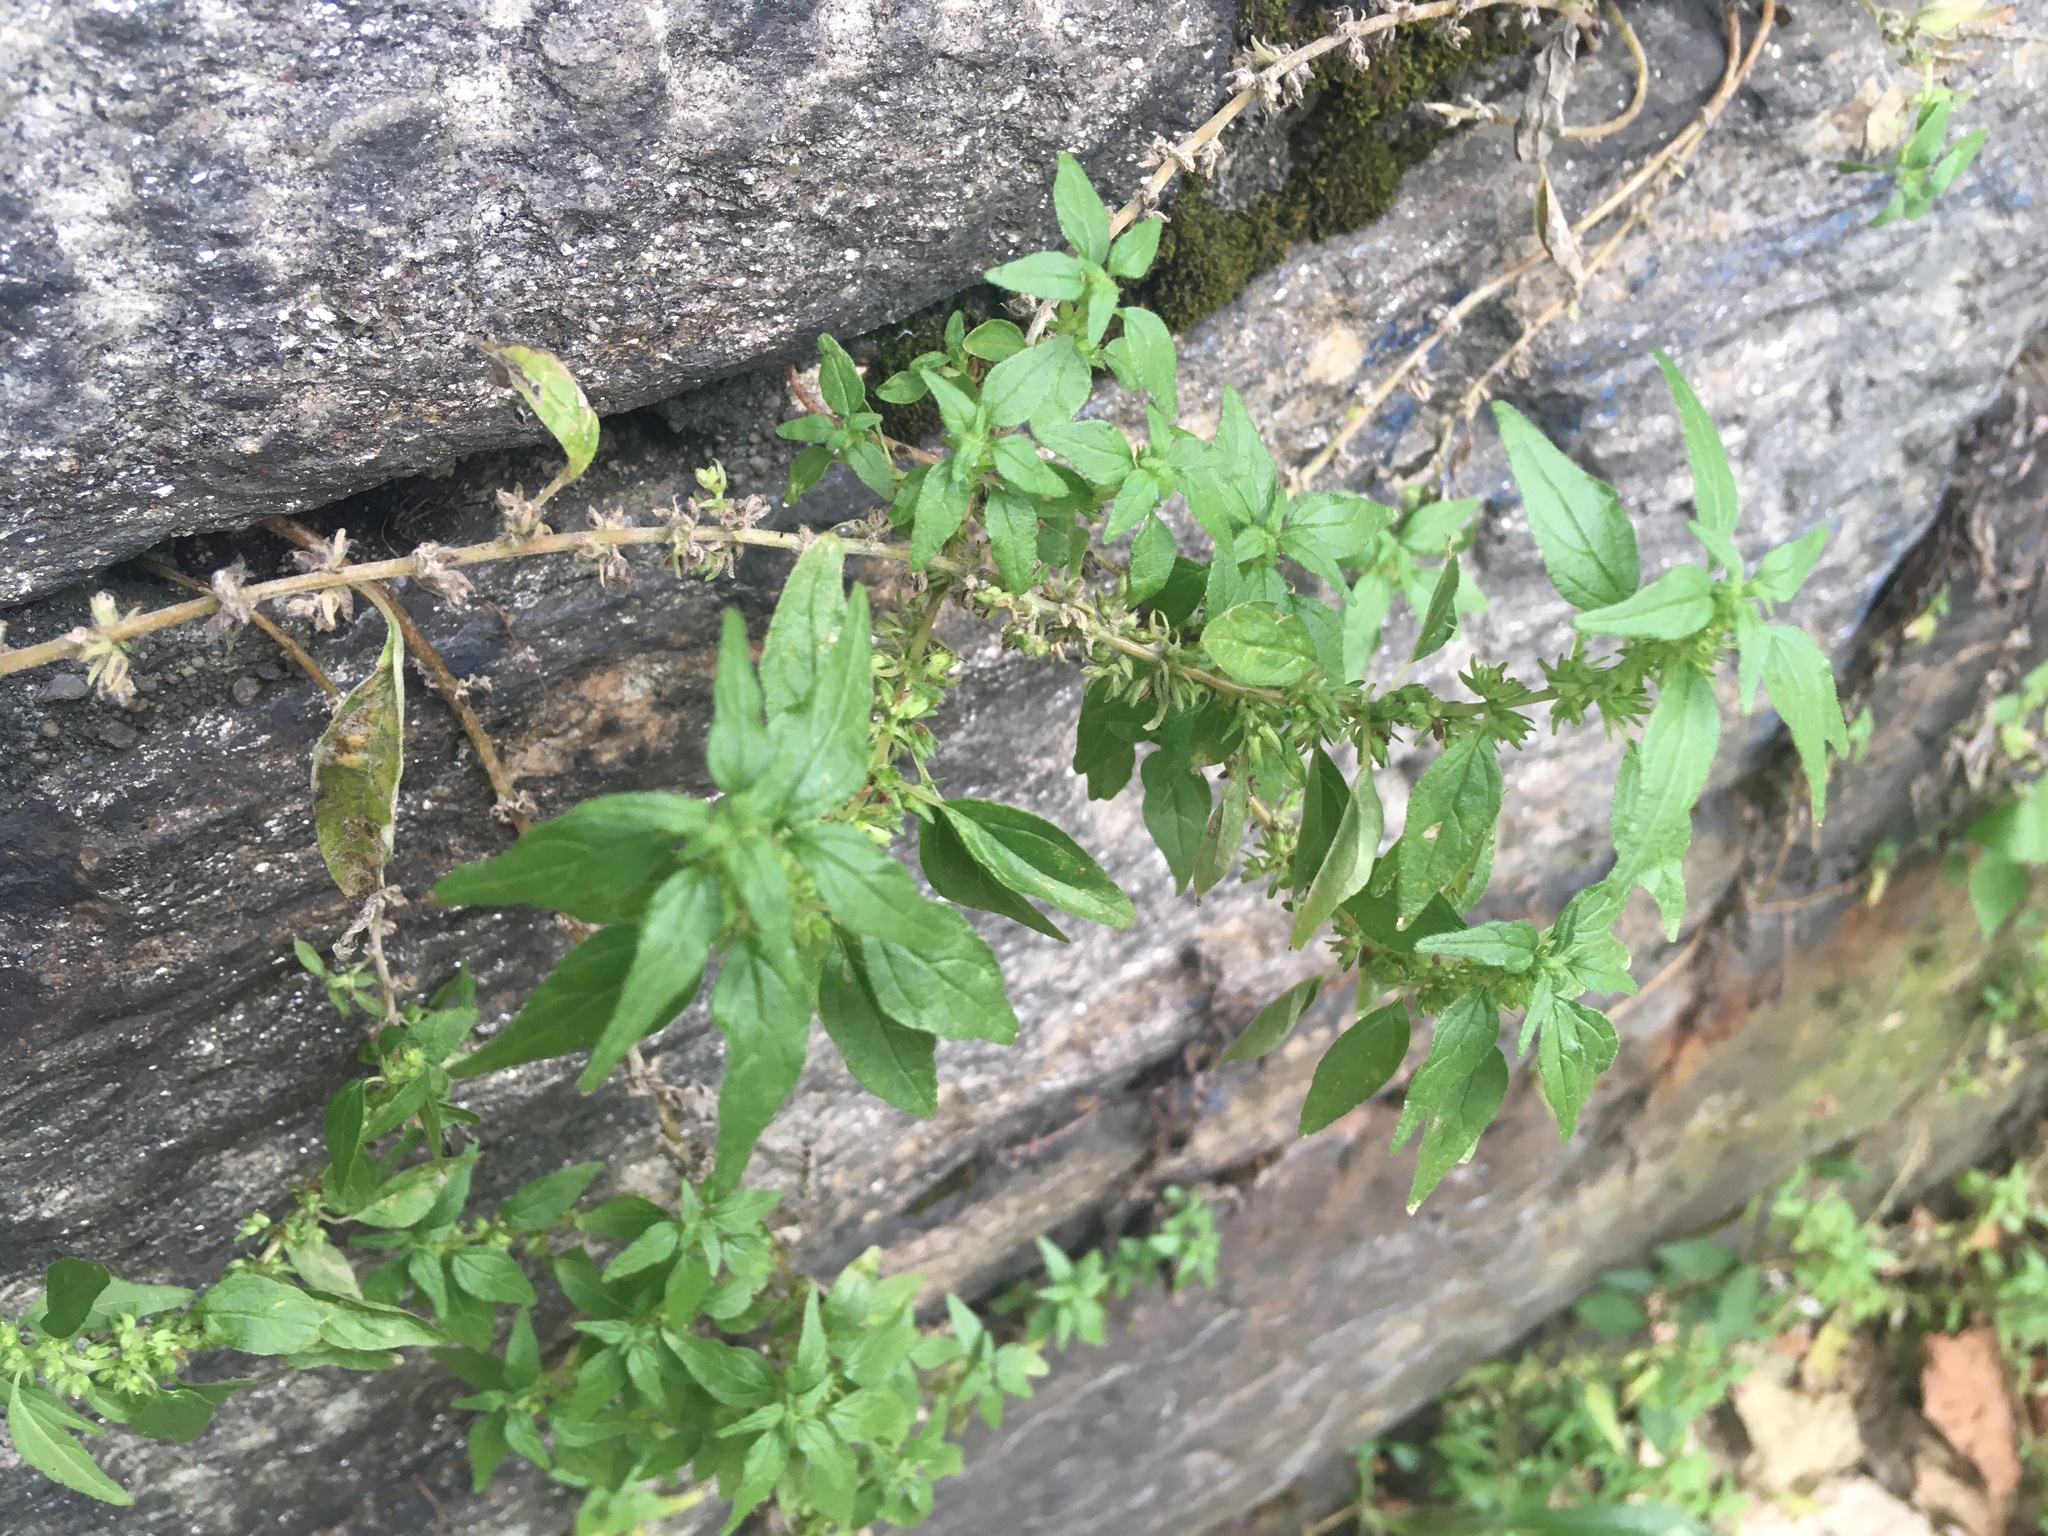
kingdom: Plantae
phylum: Tracheophyta
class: Magnoliopsida
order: Rosales
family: Urticaceae
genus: Parietaria
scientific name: Parietaria pensylvanica
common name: Pennsylvania pellitory
